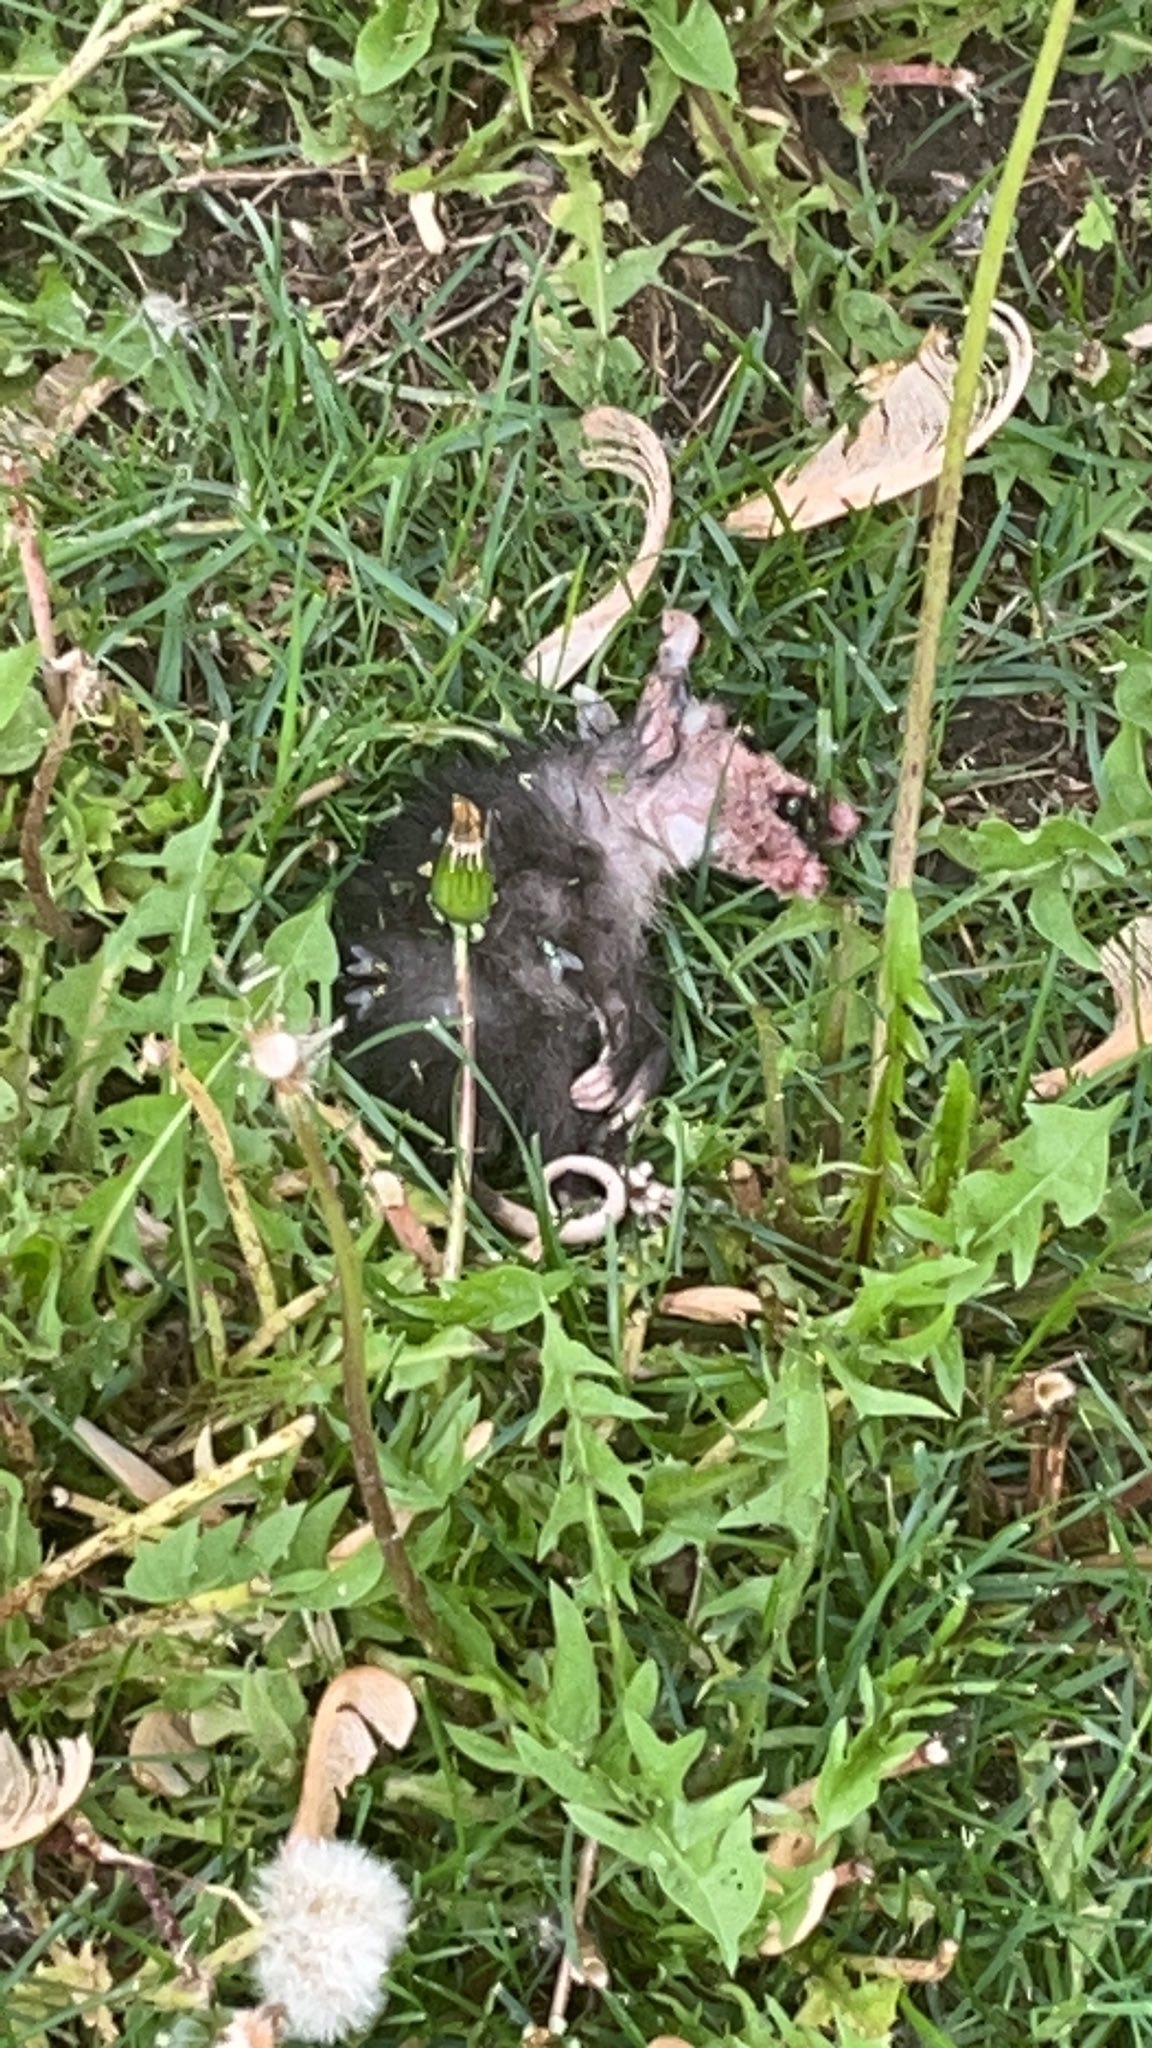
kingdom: Animalia
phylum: Chordata
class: Mammalia
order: Didelphimorphia
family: Didelphidae
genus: Didelphis
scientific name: Didelphis virginiana
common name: Virginia opossum
